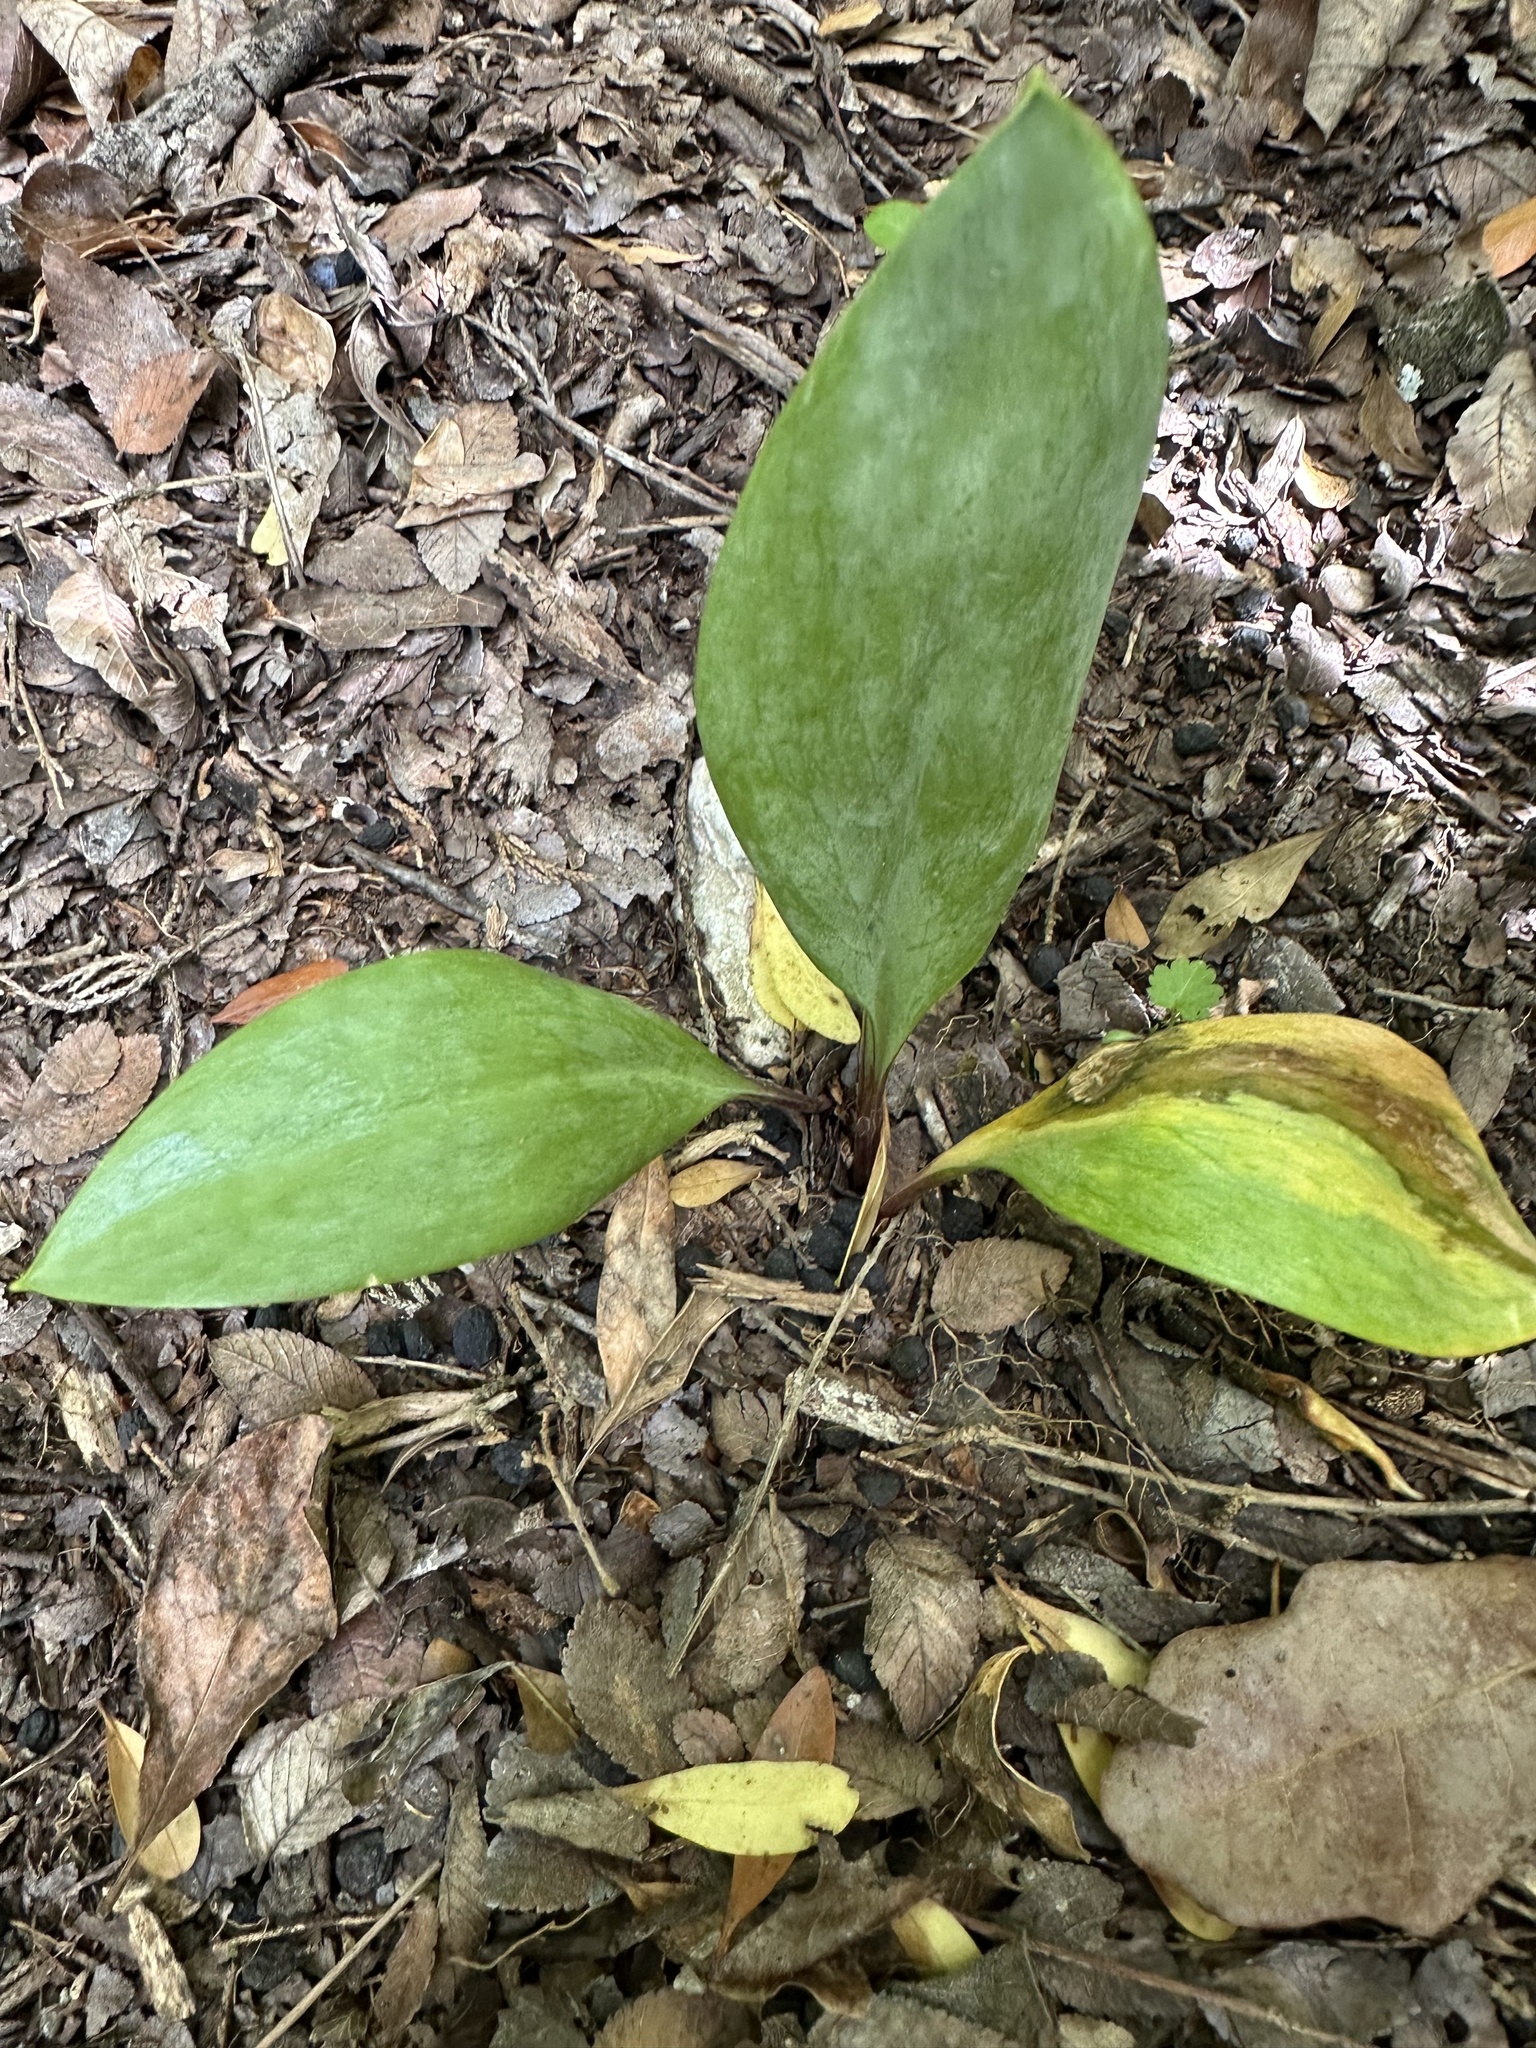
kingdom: Plantae
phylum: Tracheophyta
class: Liliopsida
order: Liliales
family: Liliaceae
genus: Erythronium
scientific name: Erythronium albidum
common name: White trout-lily
